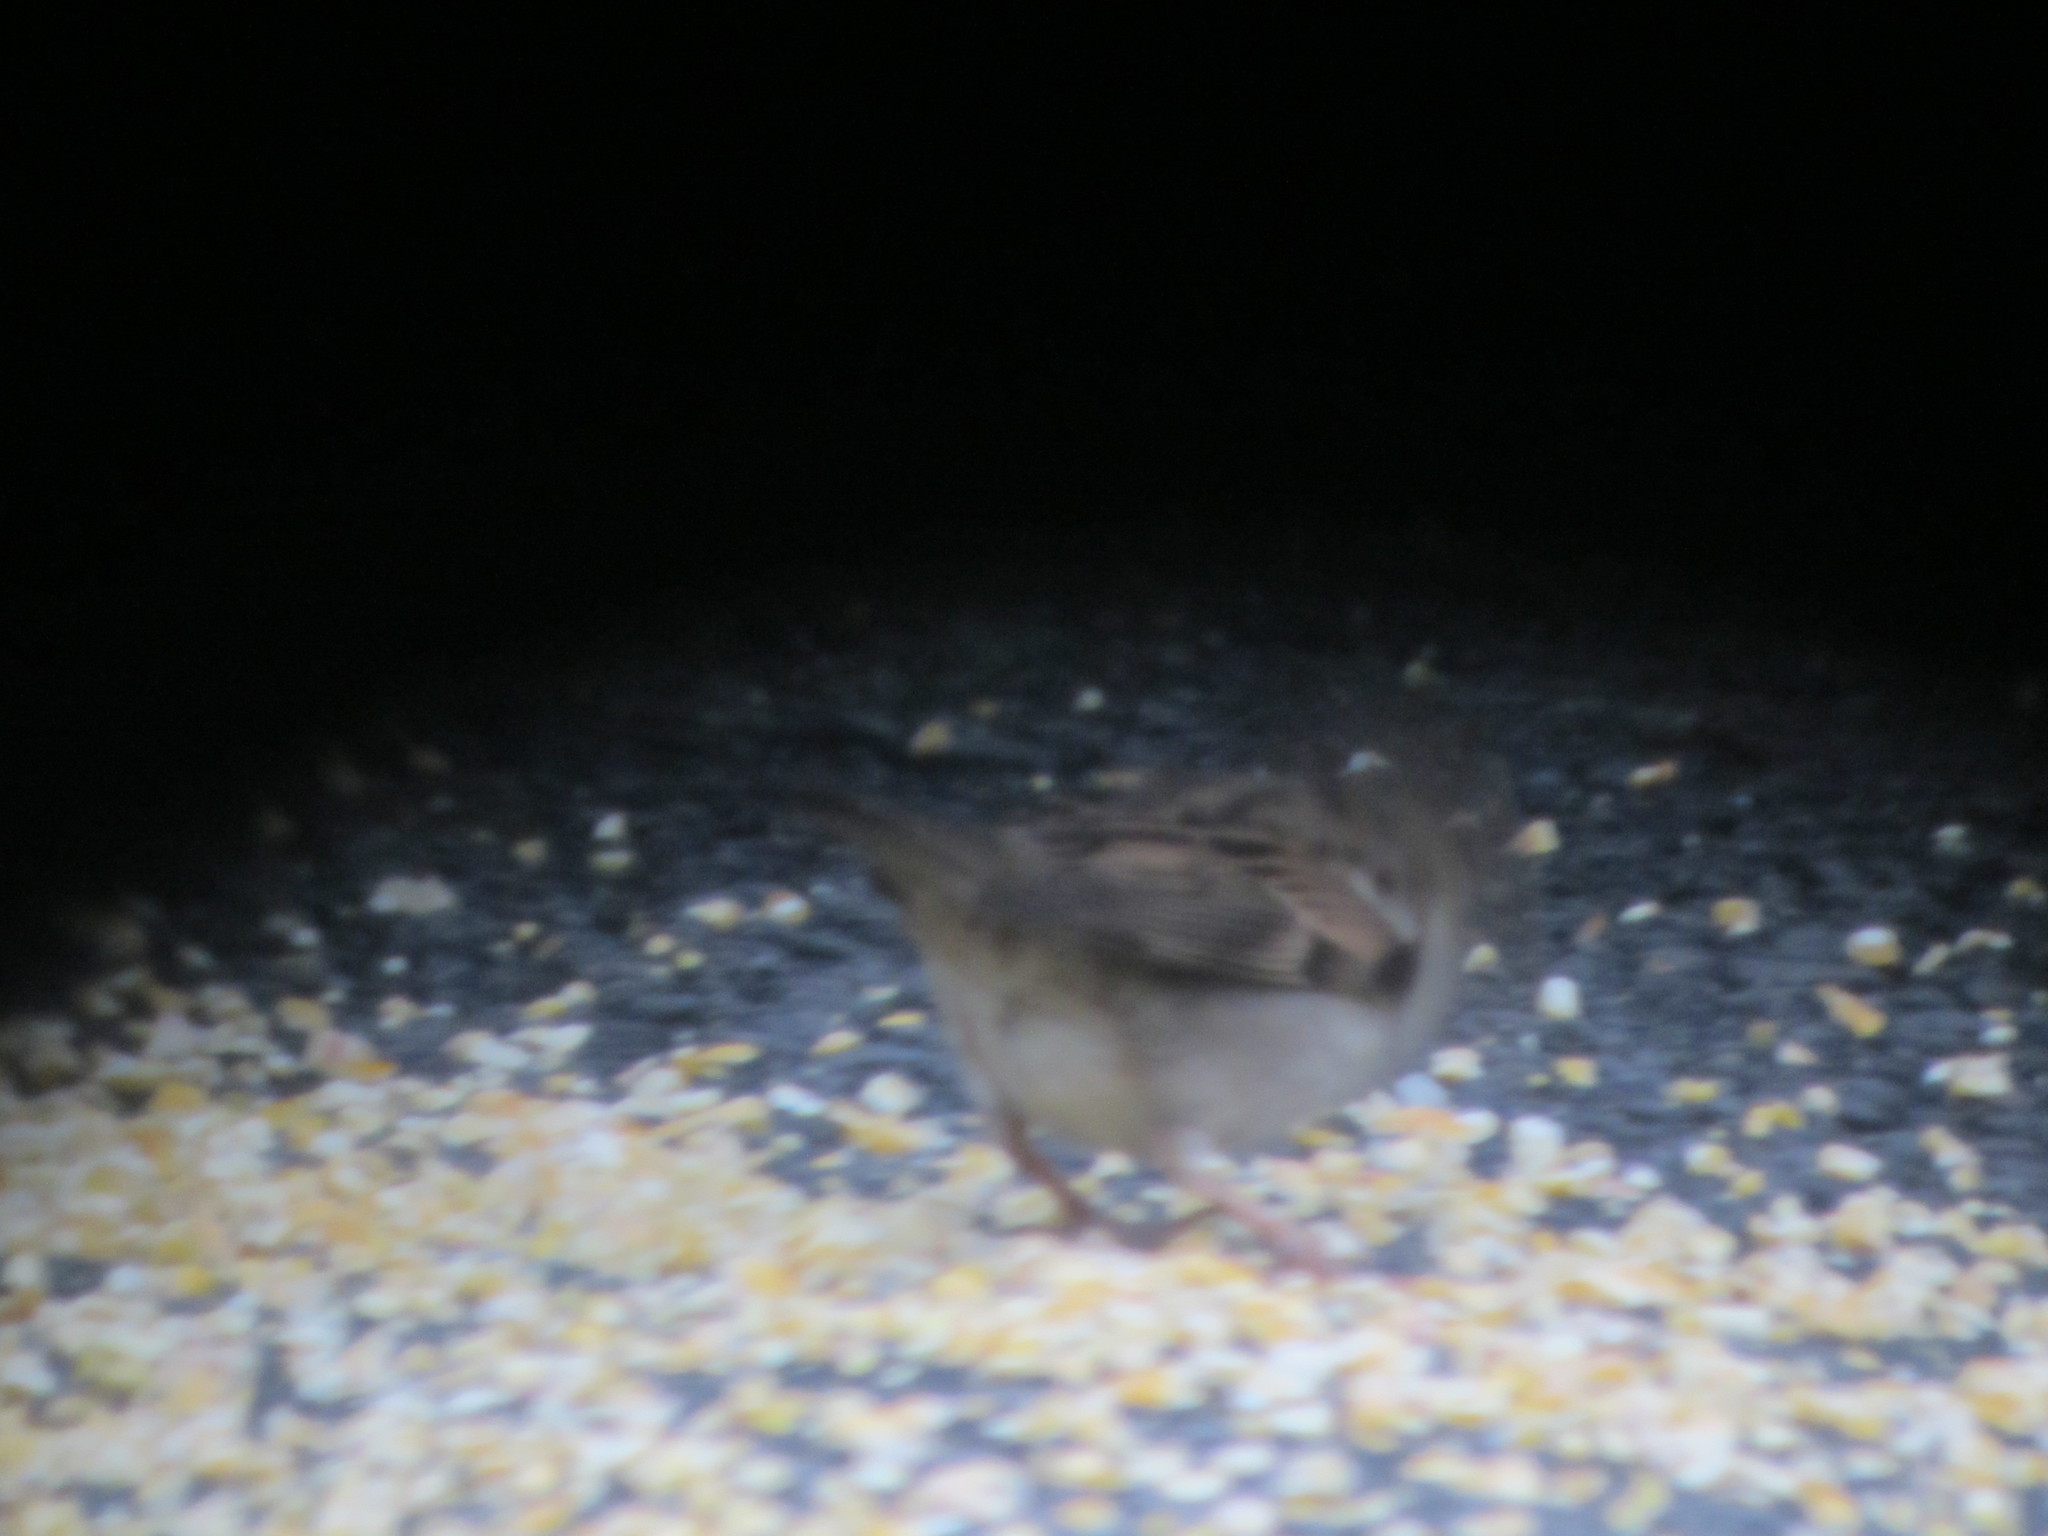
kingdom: Animalia
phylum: Chordata
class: Aves
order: Passeriformes
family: Passeridae
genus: Passer
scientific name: Passer domesticus
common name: House sparrow
